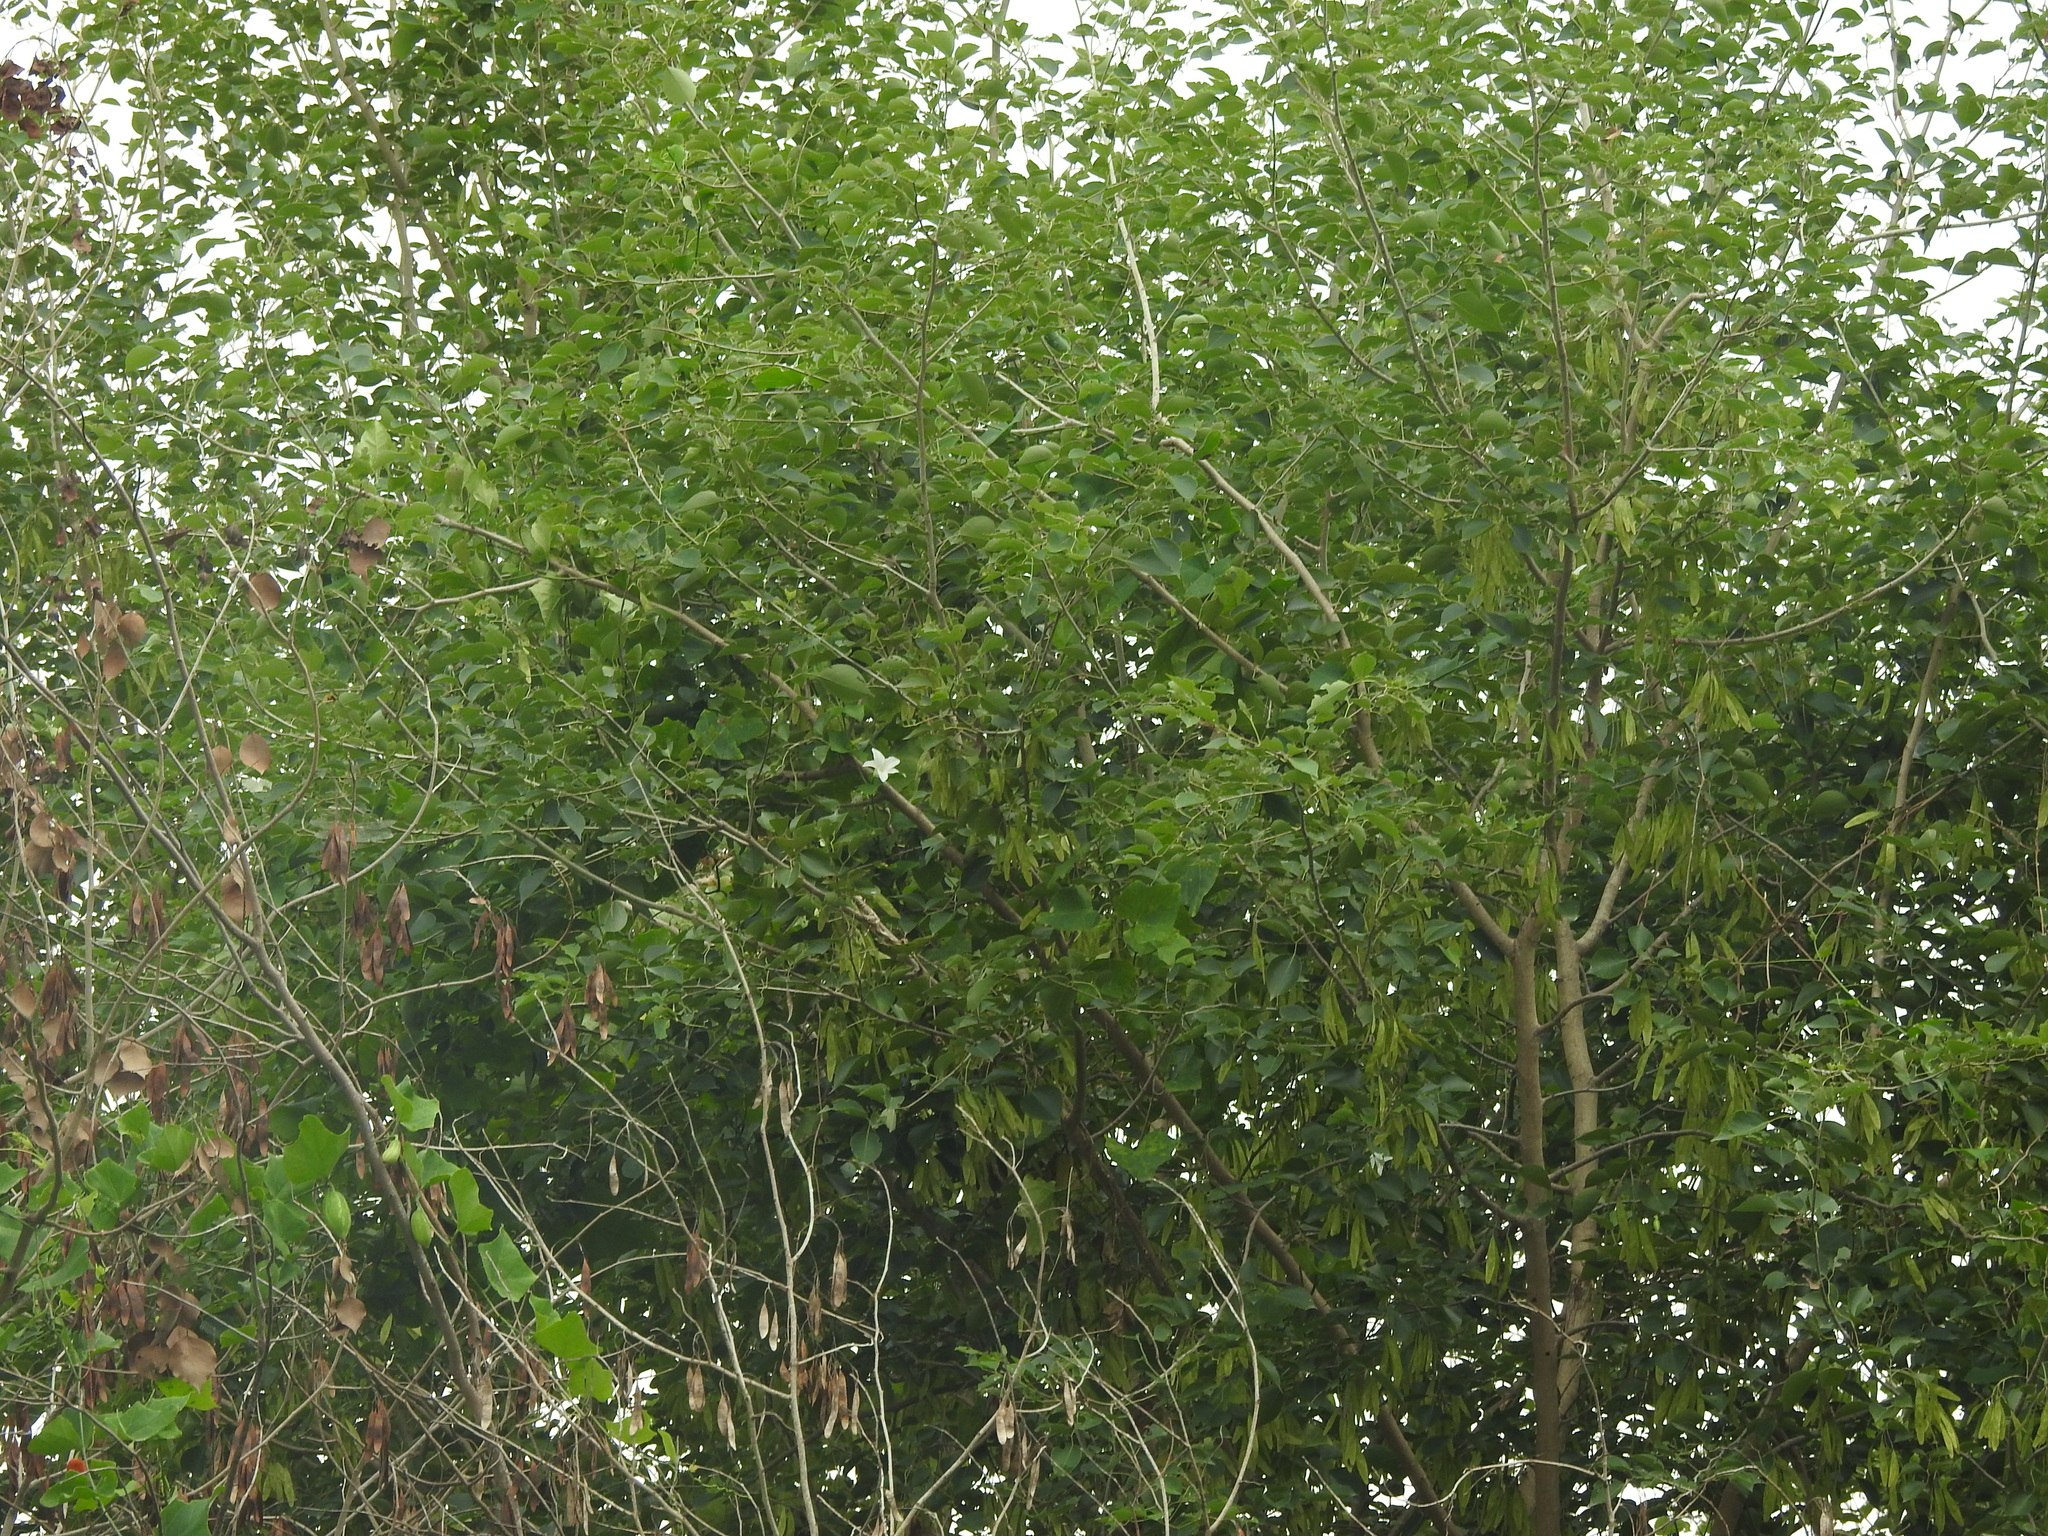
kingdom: Plantae
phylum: Tracheophyta
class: Magnoliopsida
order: Fabales
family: Fabaceae
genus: Dalbergia
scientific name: Dalbergia sissoo
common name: Indian rosewood
